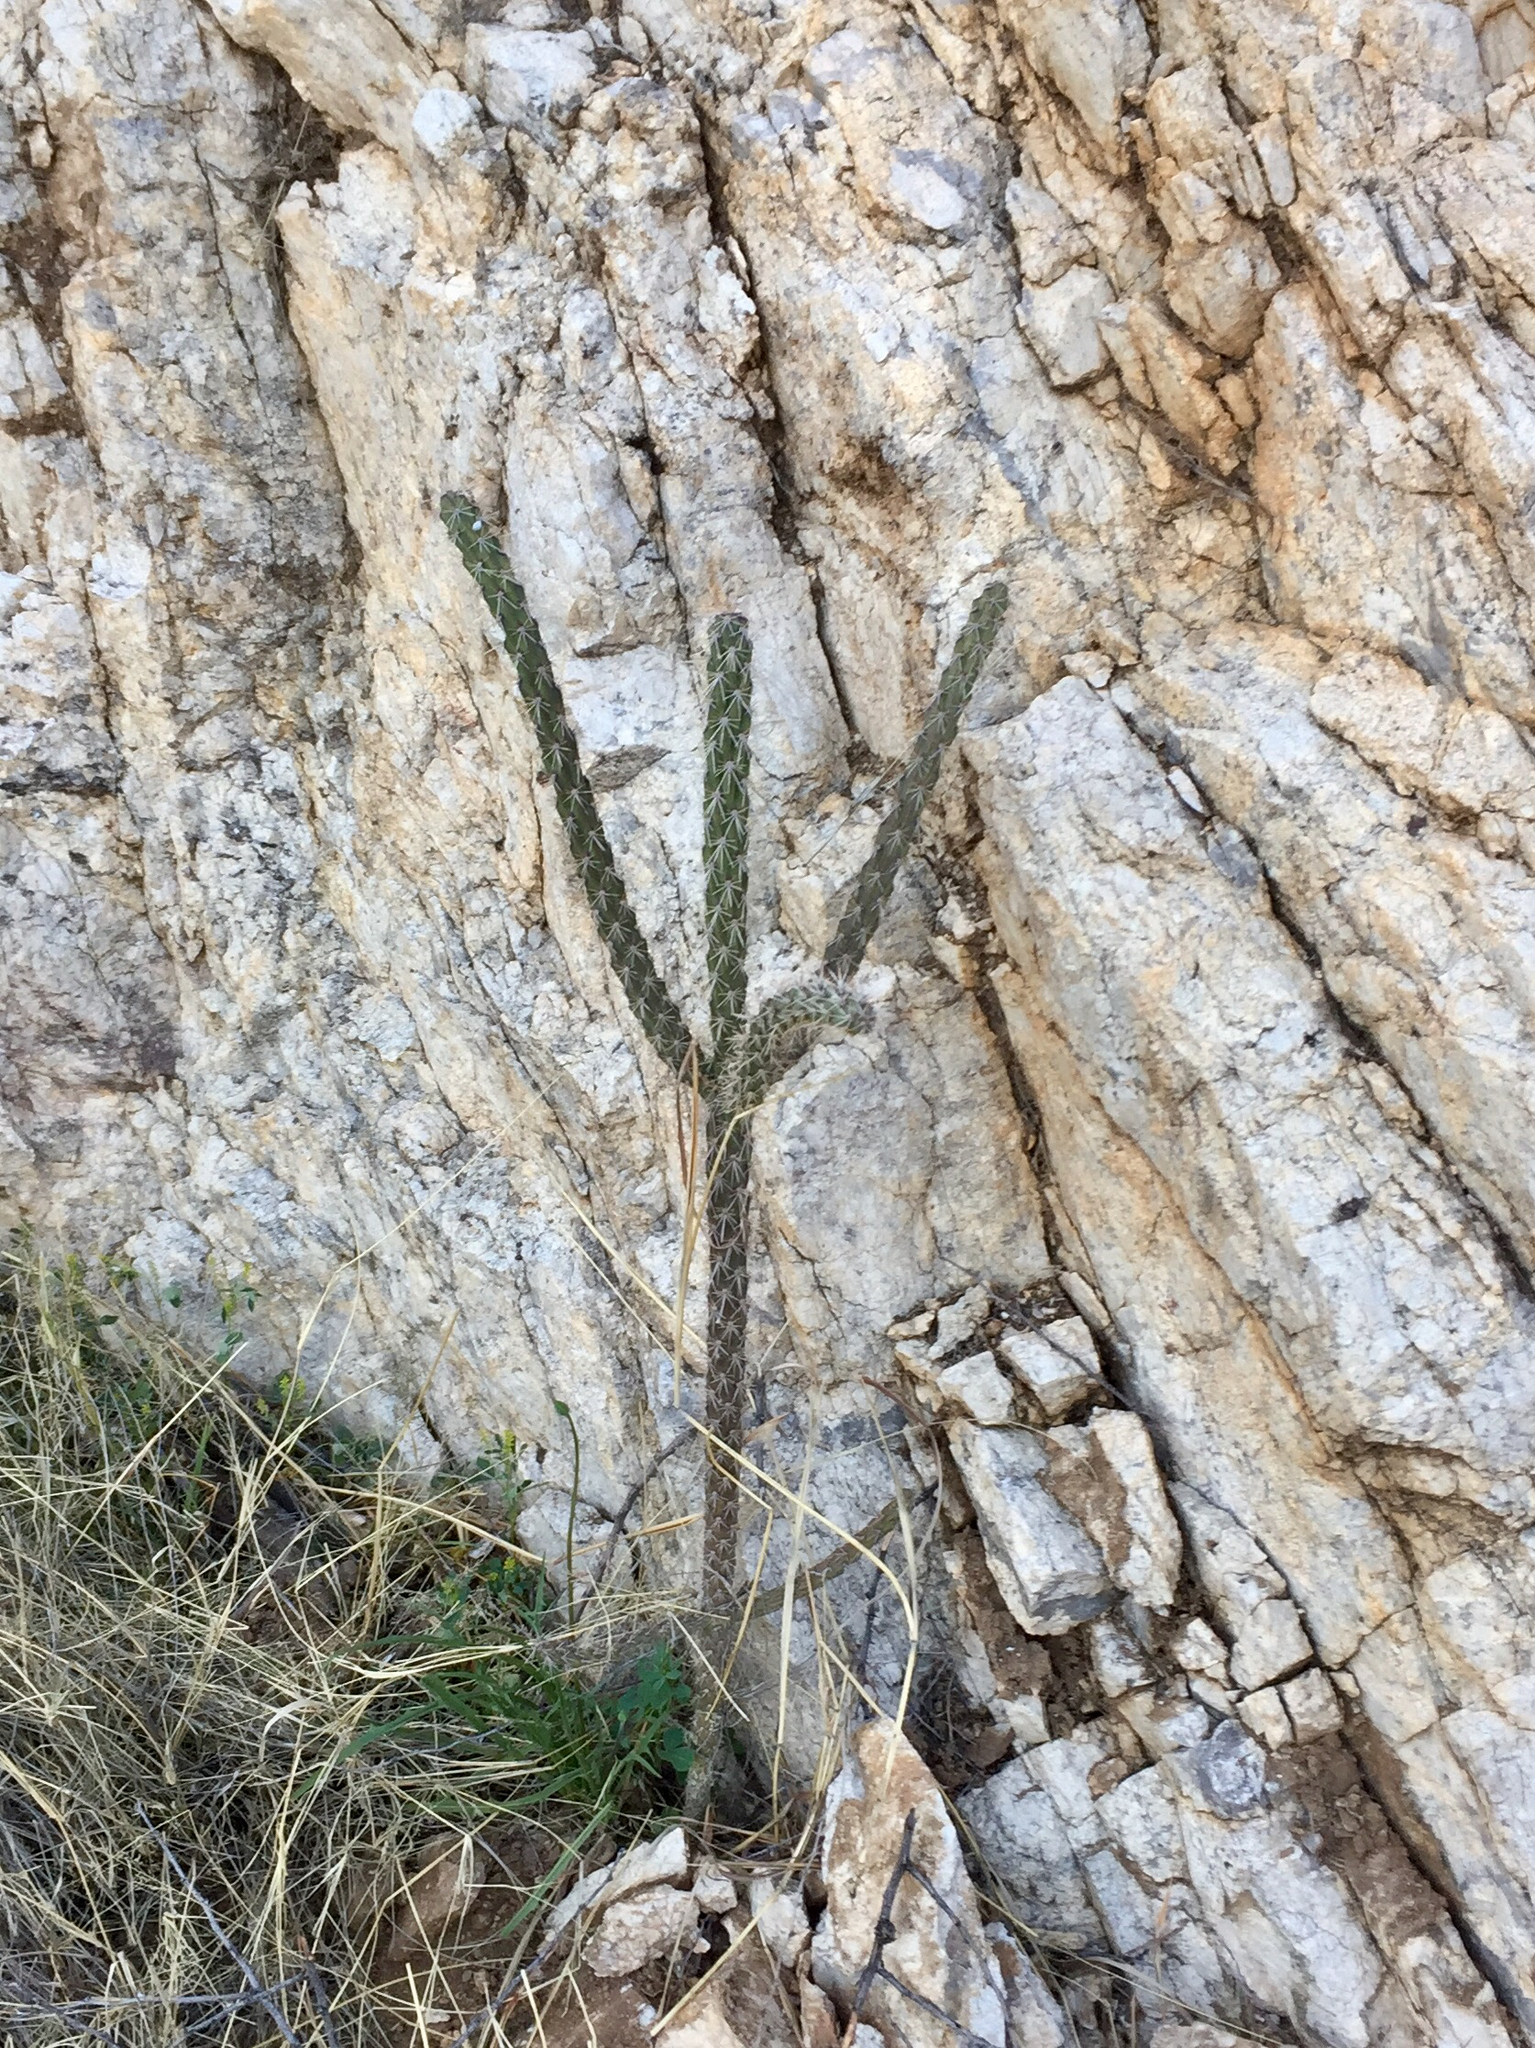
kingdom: Plantae
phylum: Tracheophyta
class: Magnoliopsida
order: Caryophyllales
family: Cactaceae
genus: Cylindropuntia
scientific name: Cylindropuntia imbricata
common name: Candelabrum cactus
